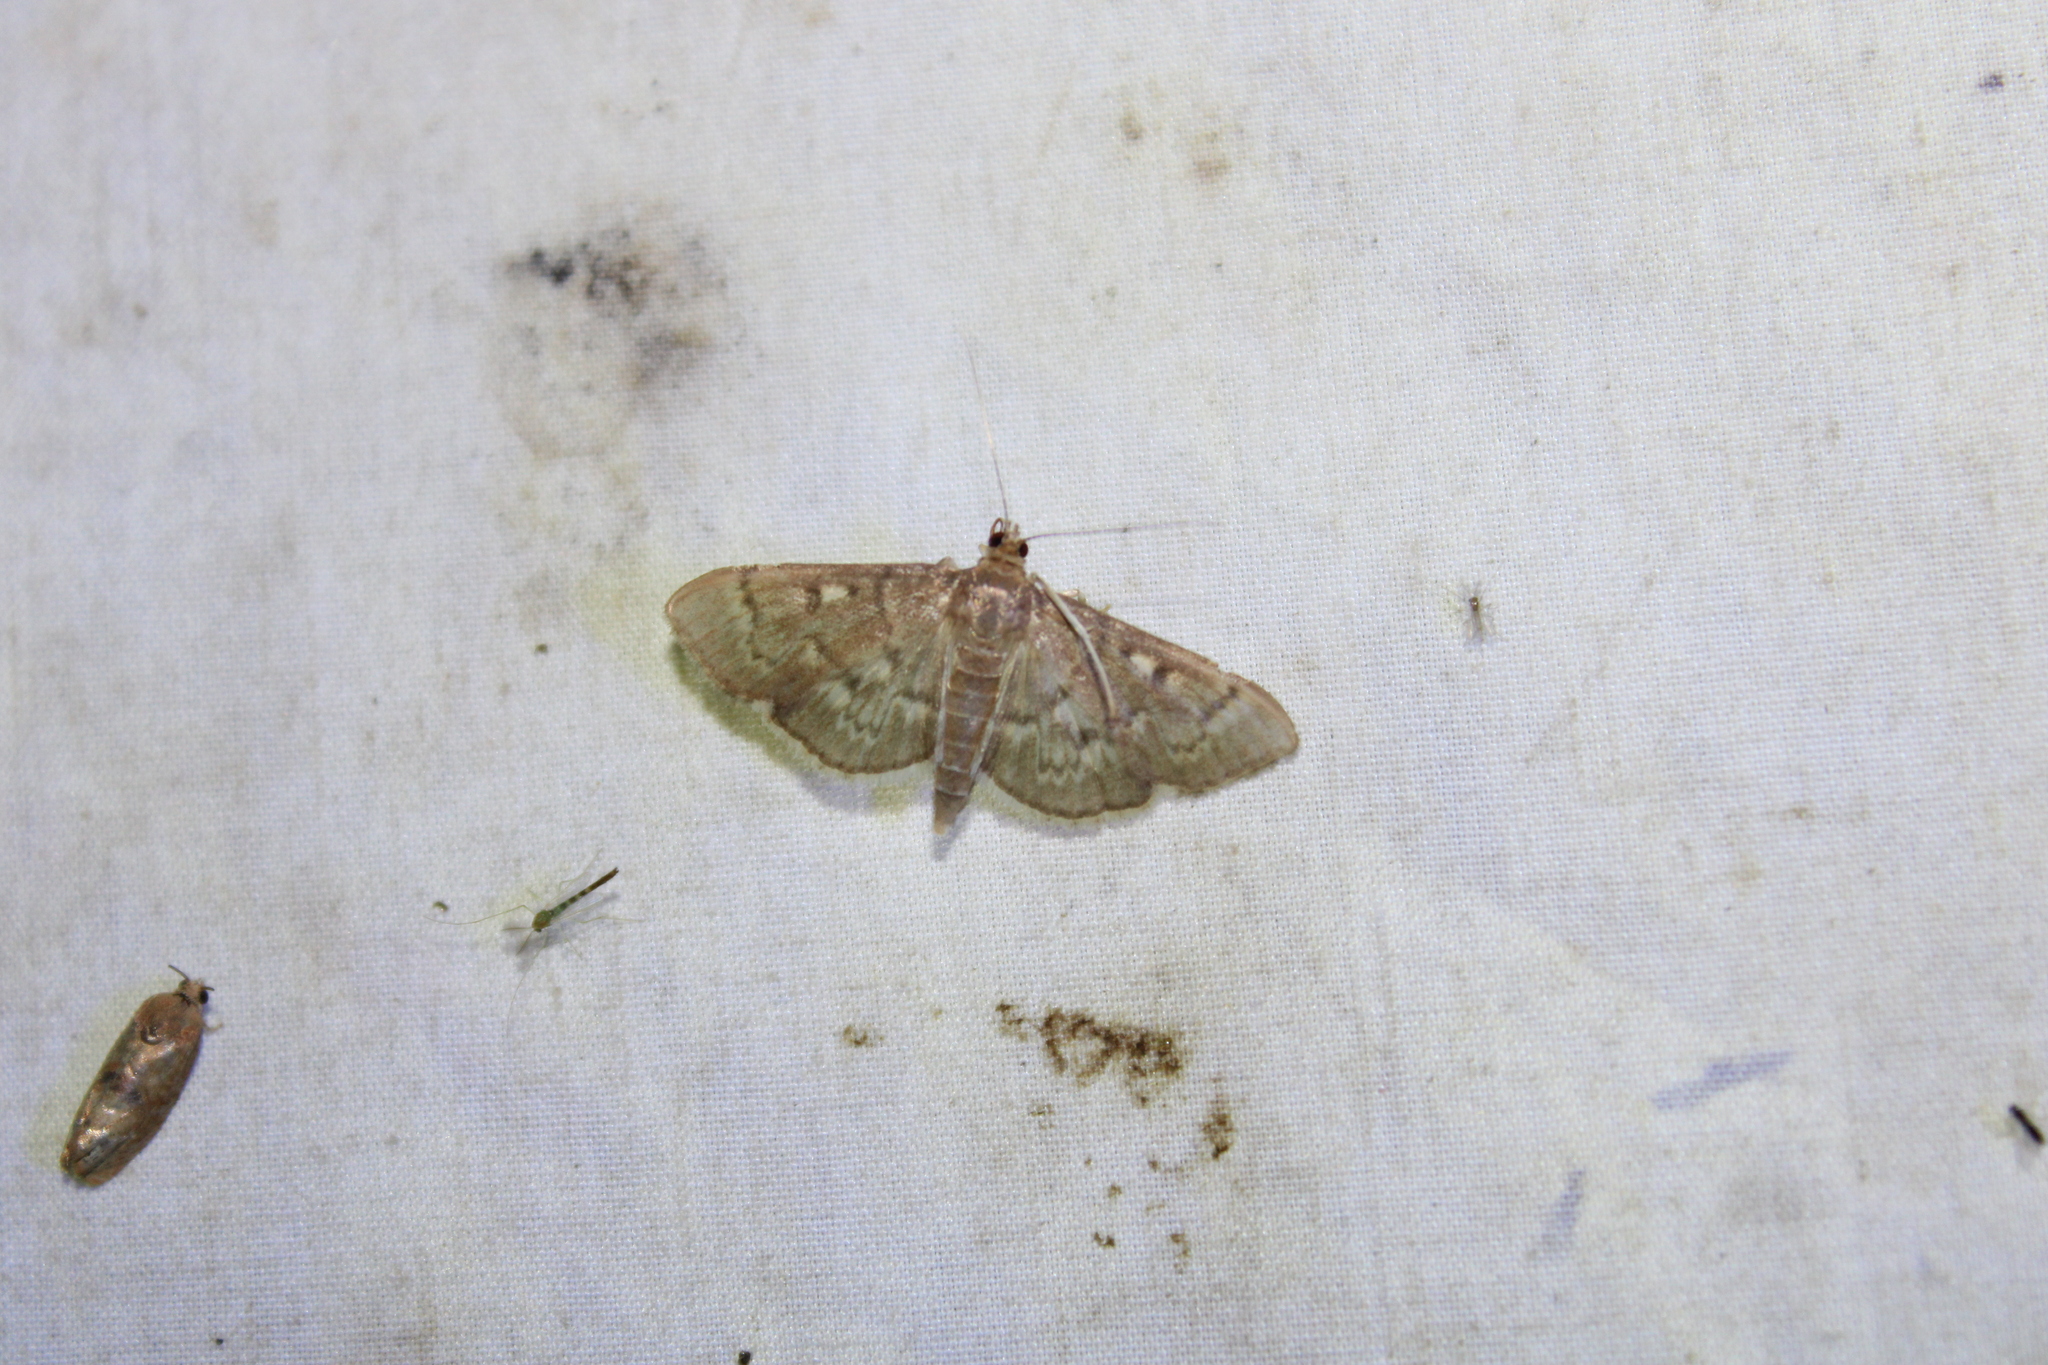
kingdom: Animalia
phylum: Arthropoda
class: Insecta
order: Lepidoptera
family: Crambidae
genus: Herpetogramma
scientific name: Herpetogramma aeglealis
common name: Serpentine webworm moth
